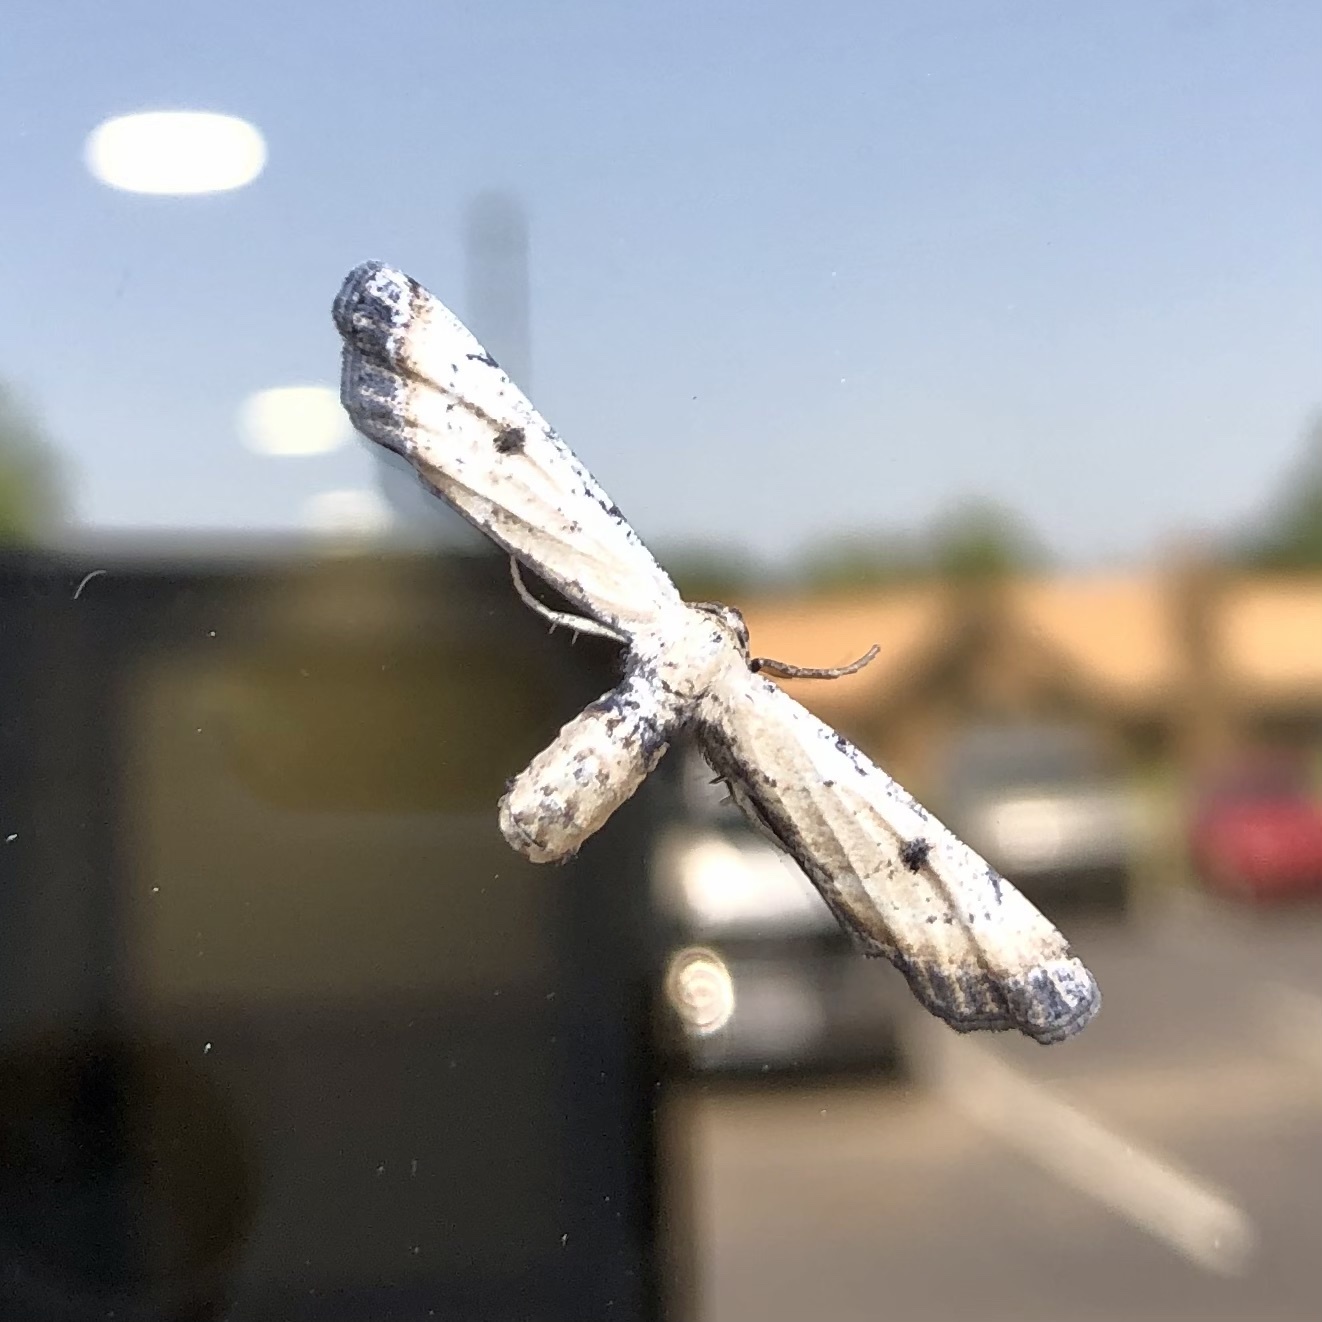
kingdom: Animalia
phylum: Arthropoda
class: Insecta
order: Lepidoptera
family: Geometridae
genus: Tornos
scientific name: Tornos scolopacinaria
